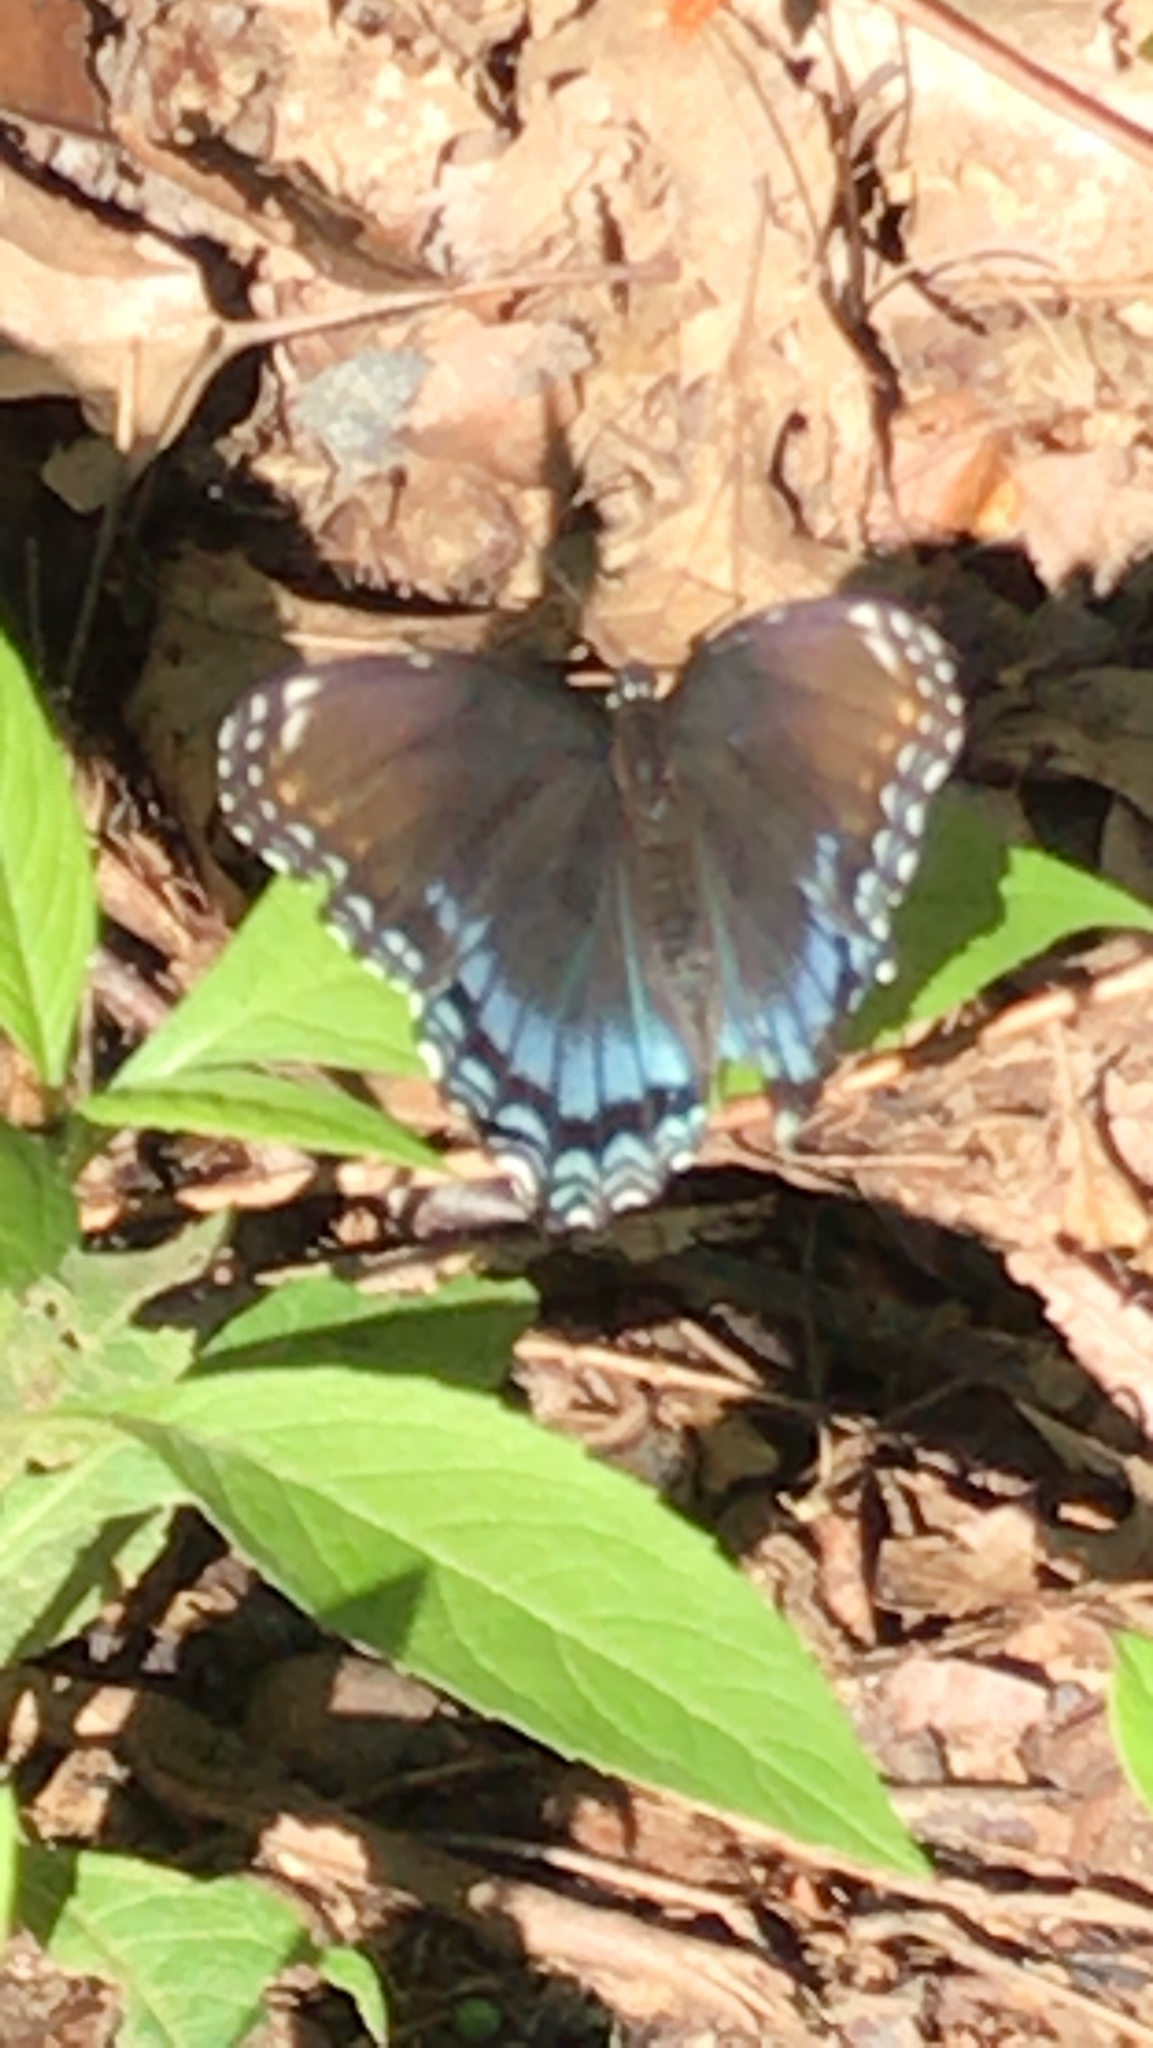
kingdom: Animalia
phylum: Arthropoda
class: Insecta
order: Lepidoptera
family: Nymphalidae
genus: Limenitis
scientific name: Limenitis astyanax
